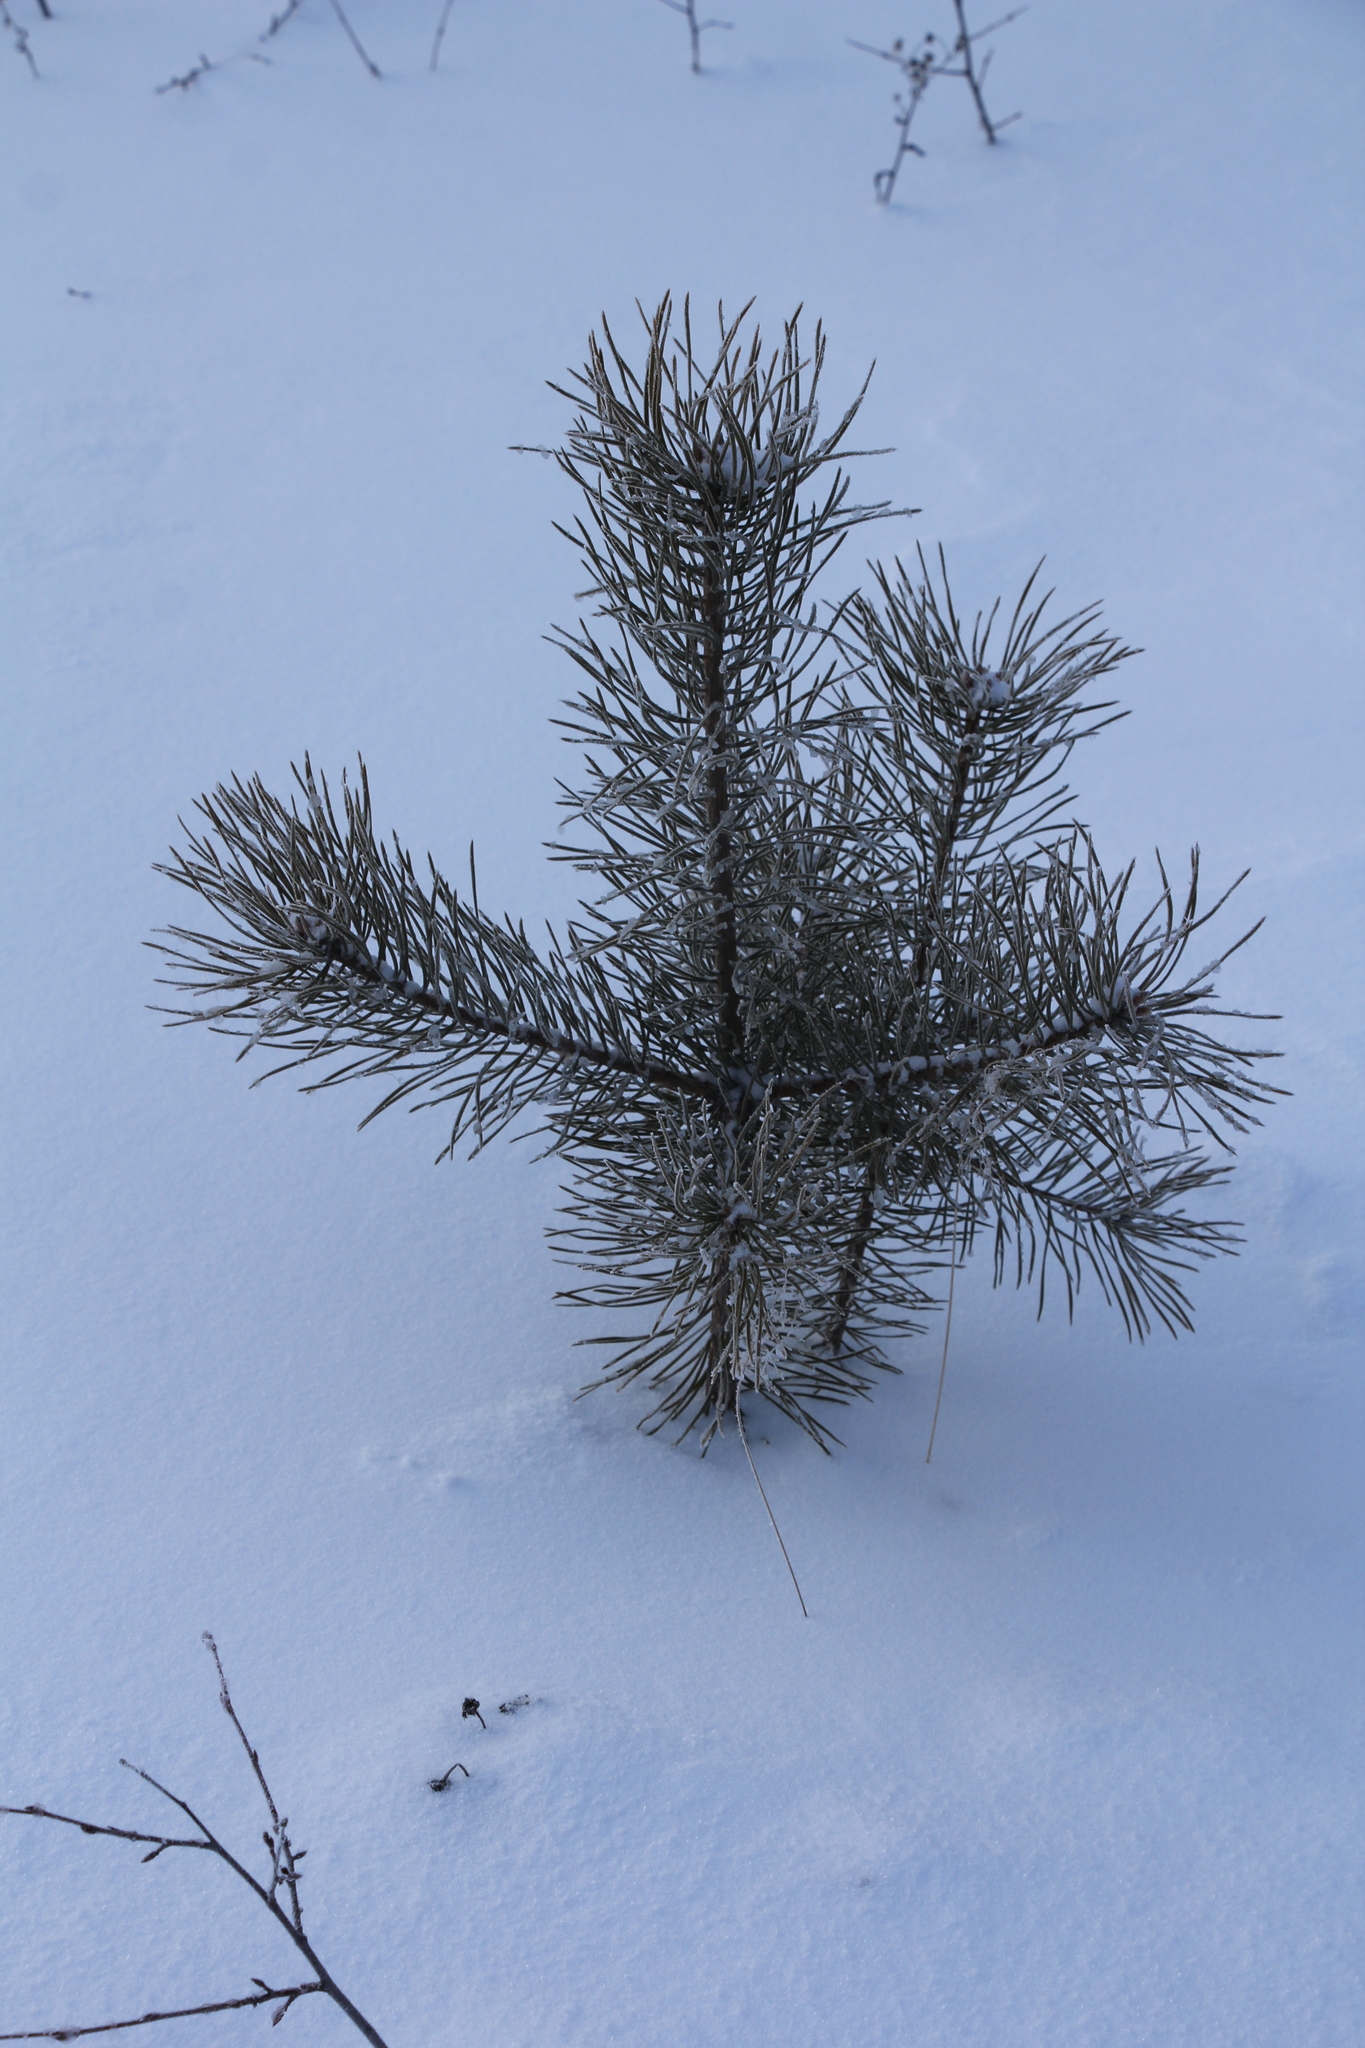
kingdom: Plantae
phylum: Tracheophyta
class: Pinopsida
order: Pinales
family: Pinaceae
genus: Pinus
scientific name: Pinus sylvestris
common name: Scots pine
